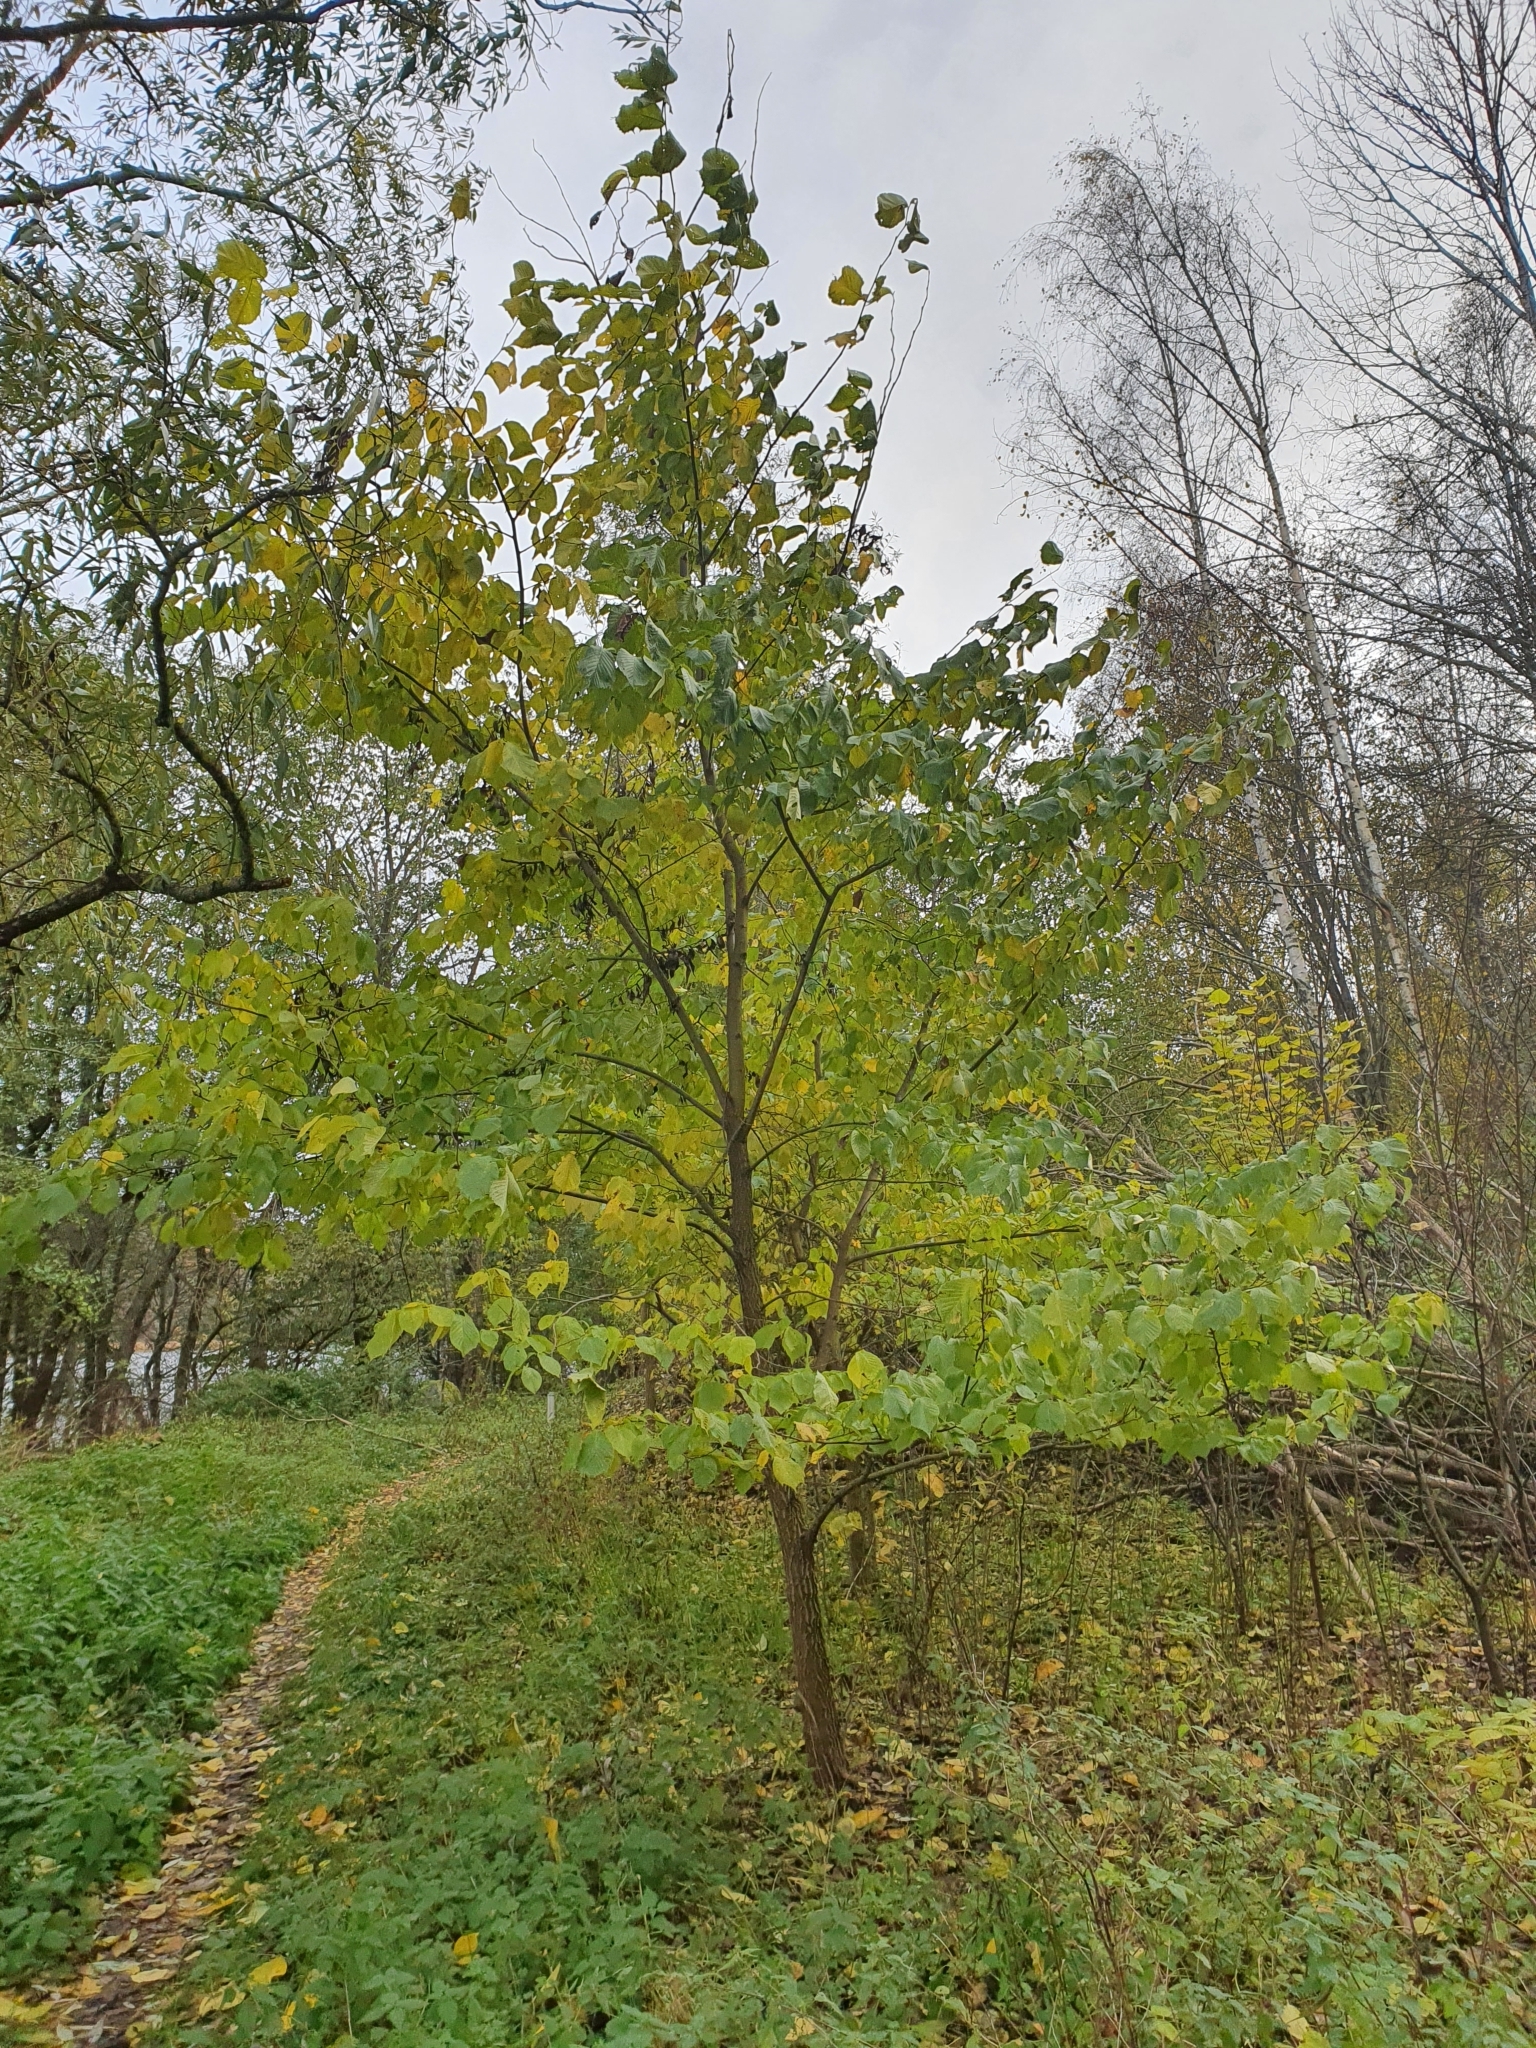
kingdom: Plantae
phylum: Tracheophyta
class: Magnoliopsida
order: Rosales
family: Ulmaceae
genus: Ulmus
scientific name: Ulmus glabra
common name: Wych elm
